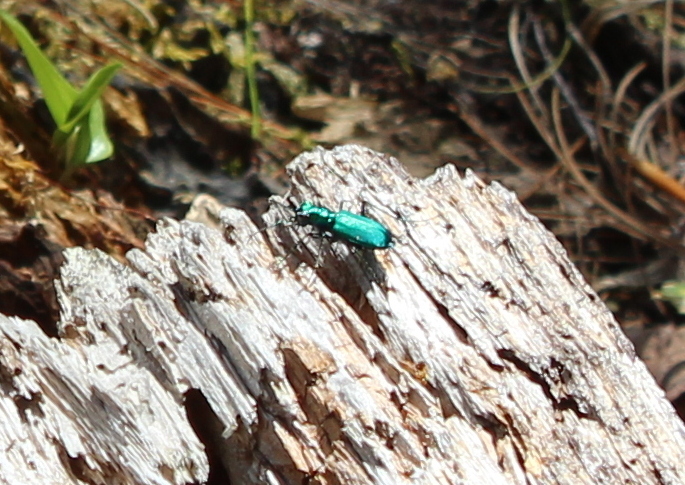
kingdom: Animalia
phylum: Arthropoda
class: Insecta
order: Coleoptera
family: Carabidae
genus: Cicindela
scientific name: Cicindela sexguttata
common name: Six-spotted tiger beetle
